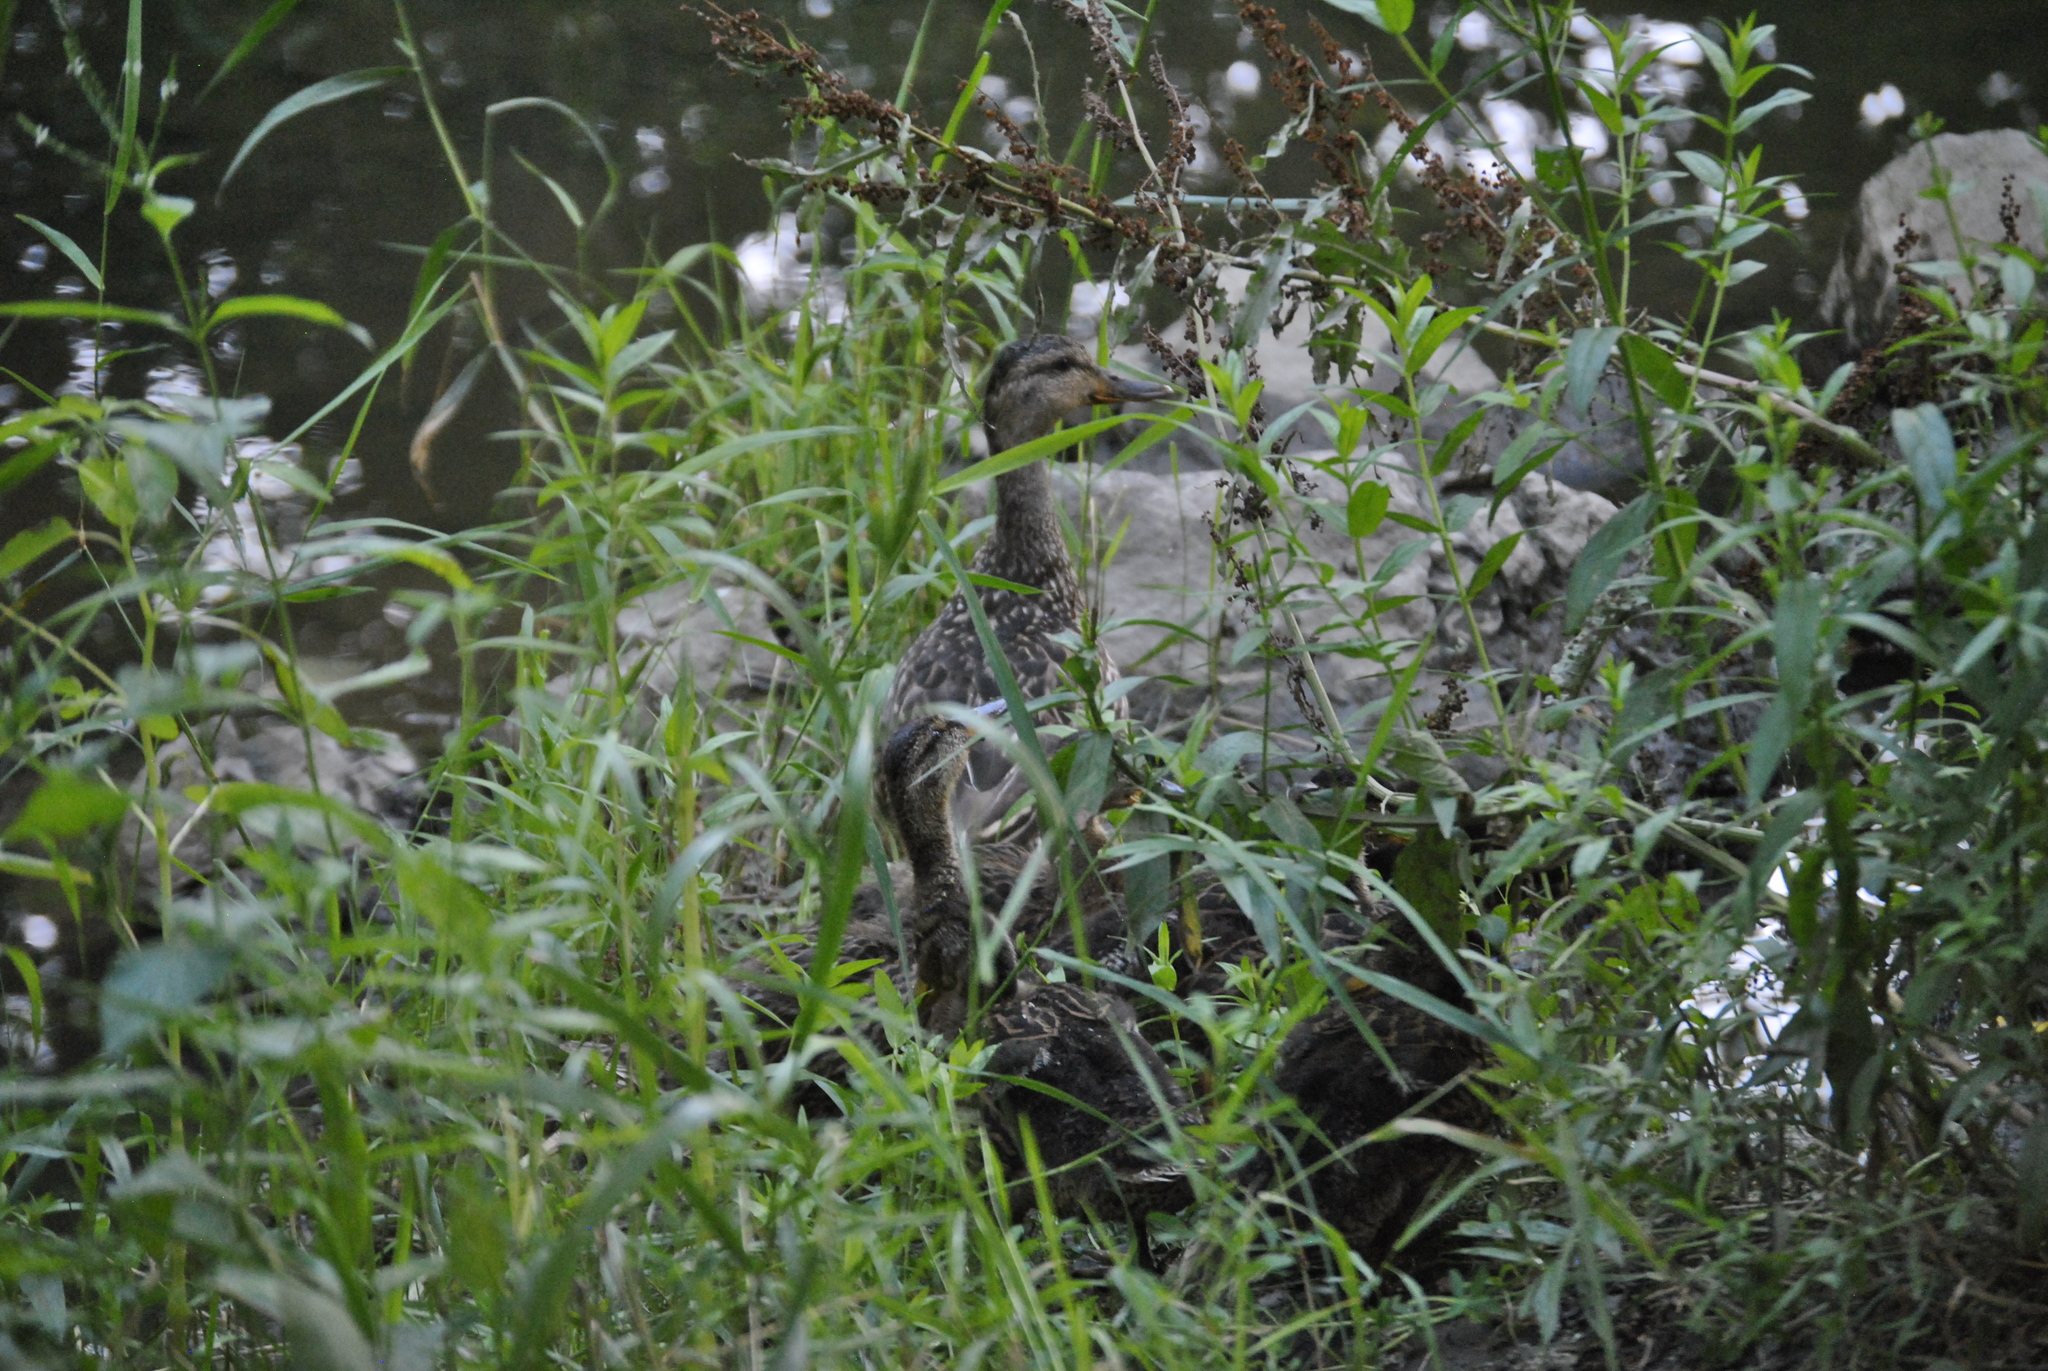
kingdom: Animalia
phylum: Chordata
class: Aves
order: Anseriformes
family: Anatidae
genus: Anas
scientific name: Anas platyrhynchos
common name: Mallard
